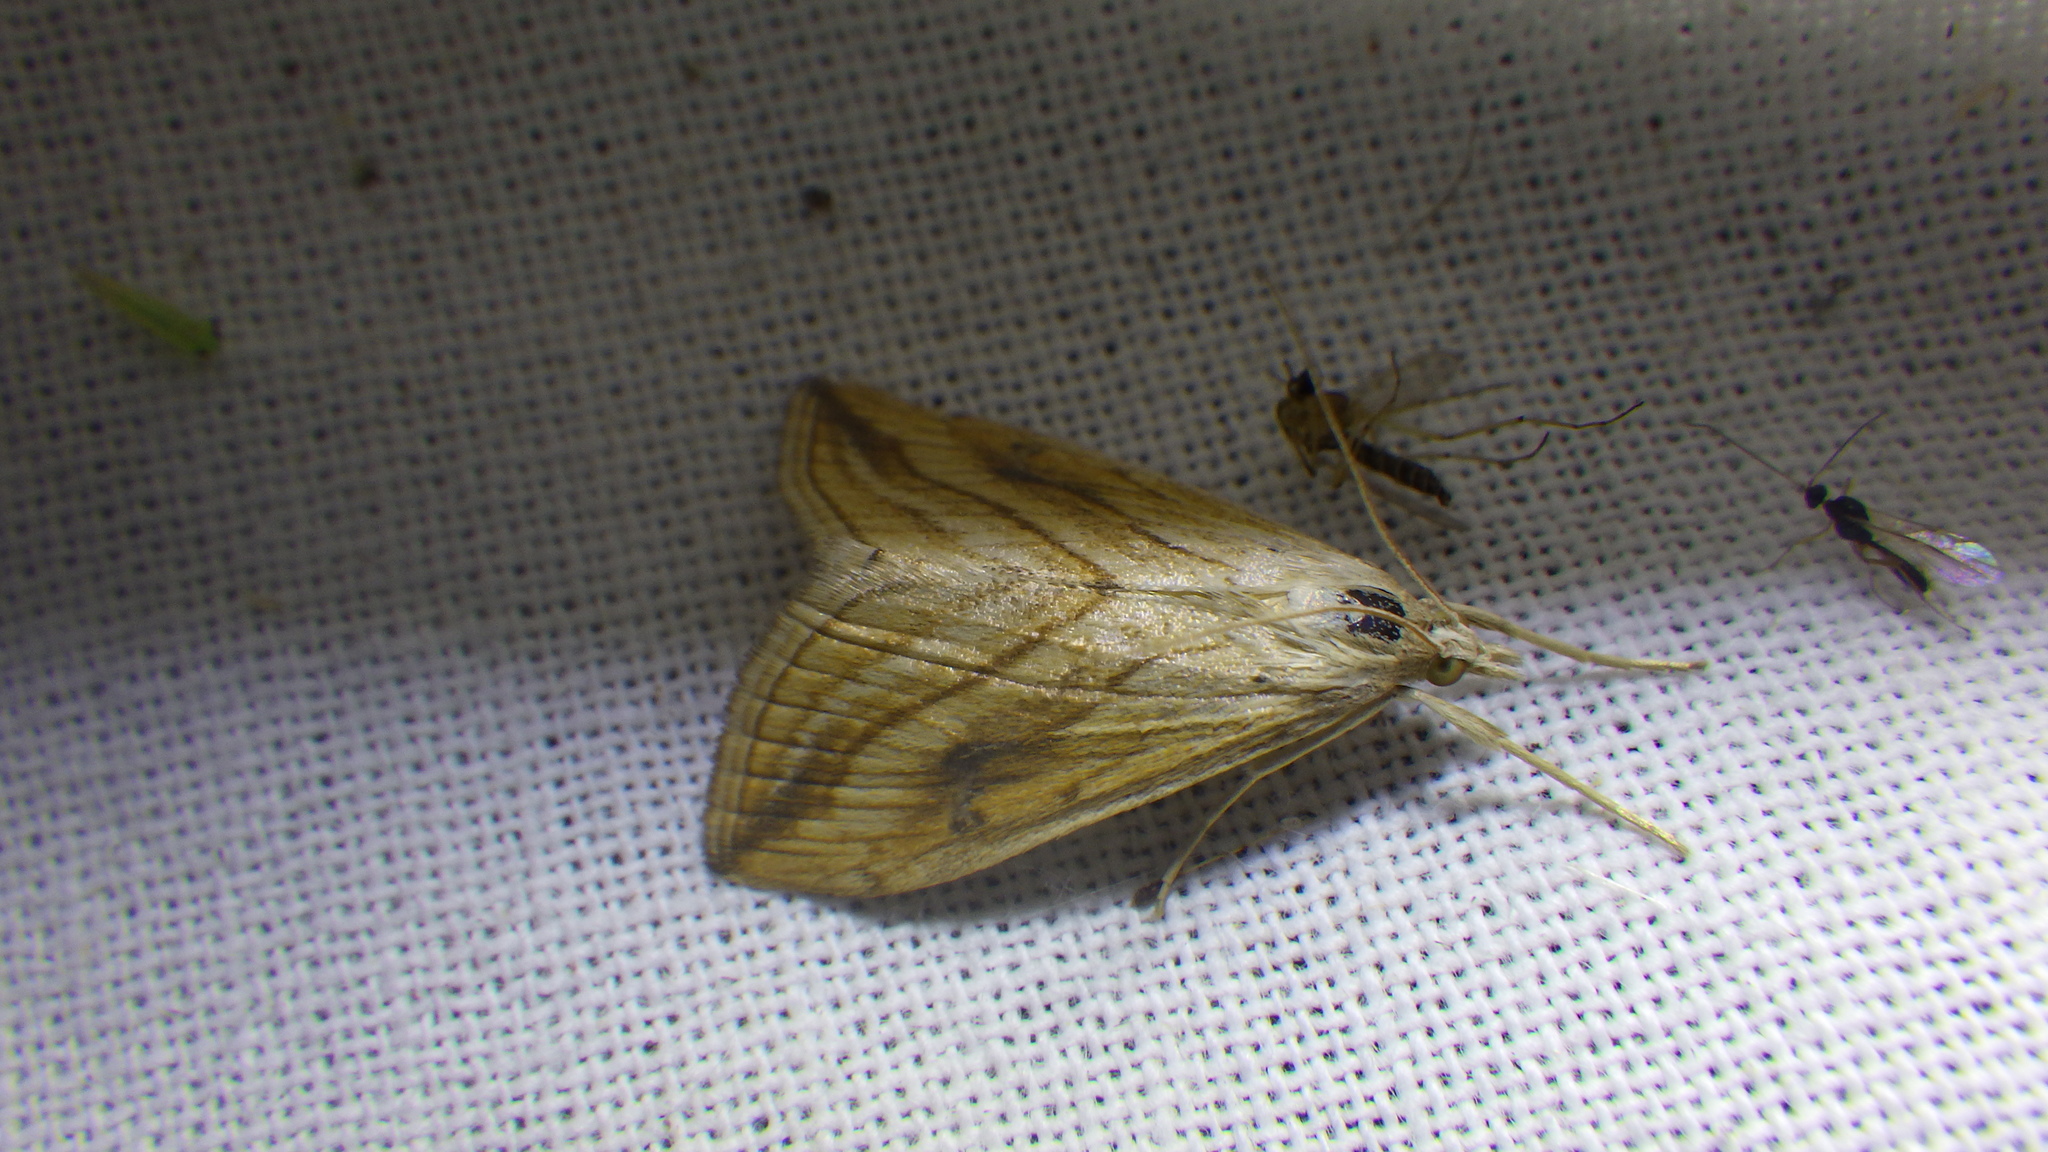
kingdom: Animalia
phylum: Arthropoda
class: Insecta
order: Lepidoptera
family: Crambidae
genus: Evergestis
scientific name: Evergestis forficalis
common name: Garden pebble
